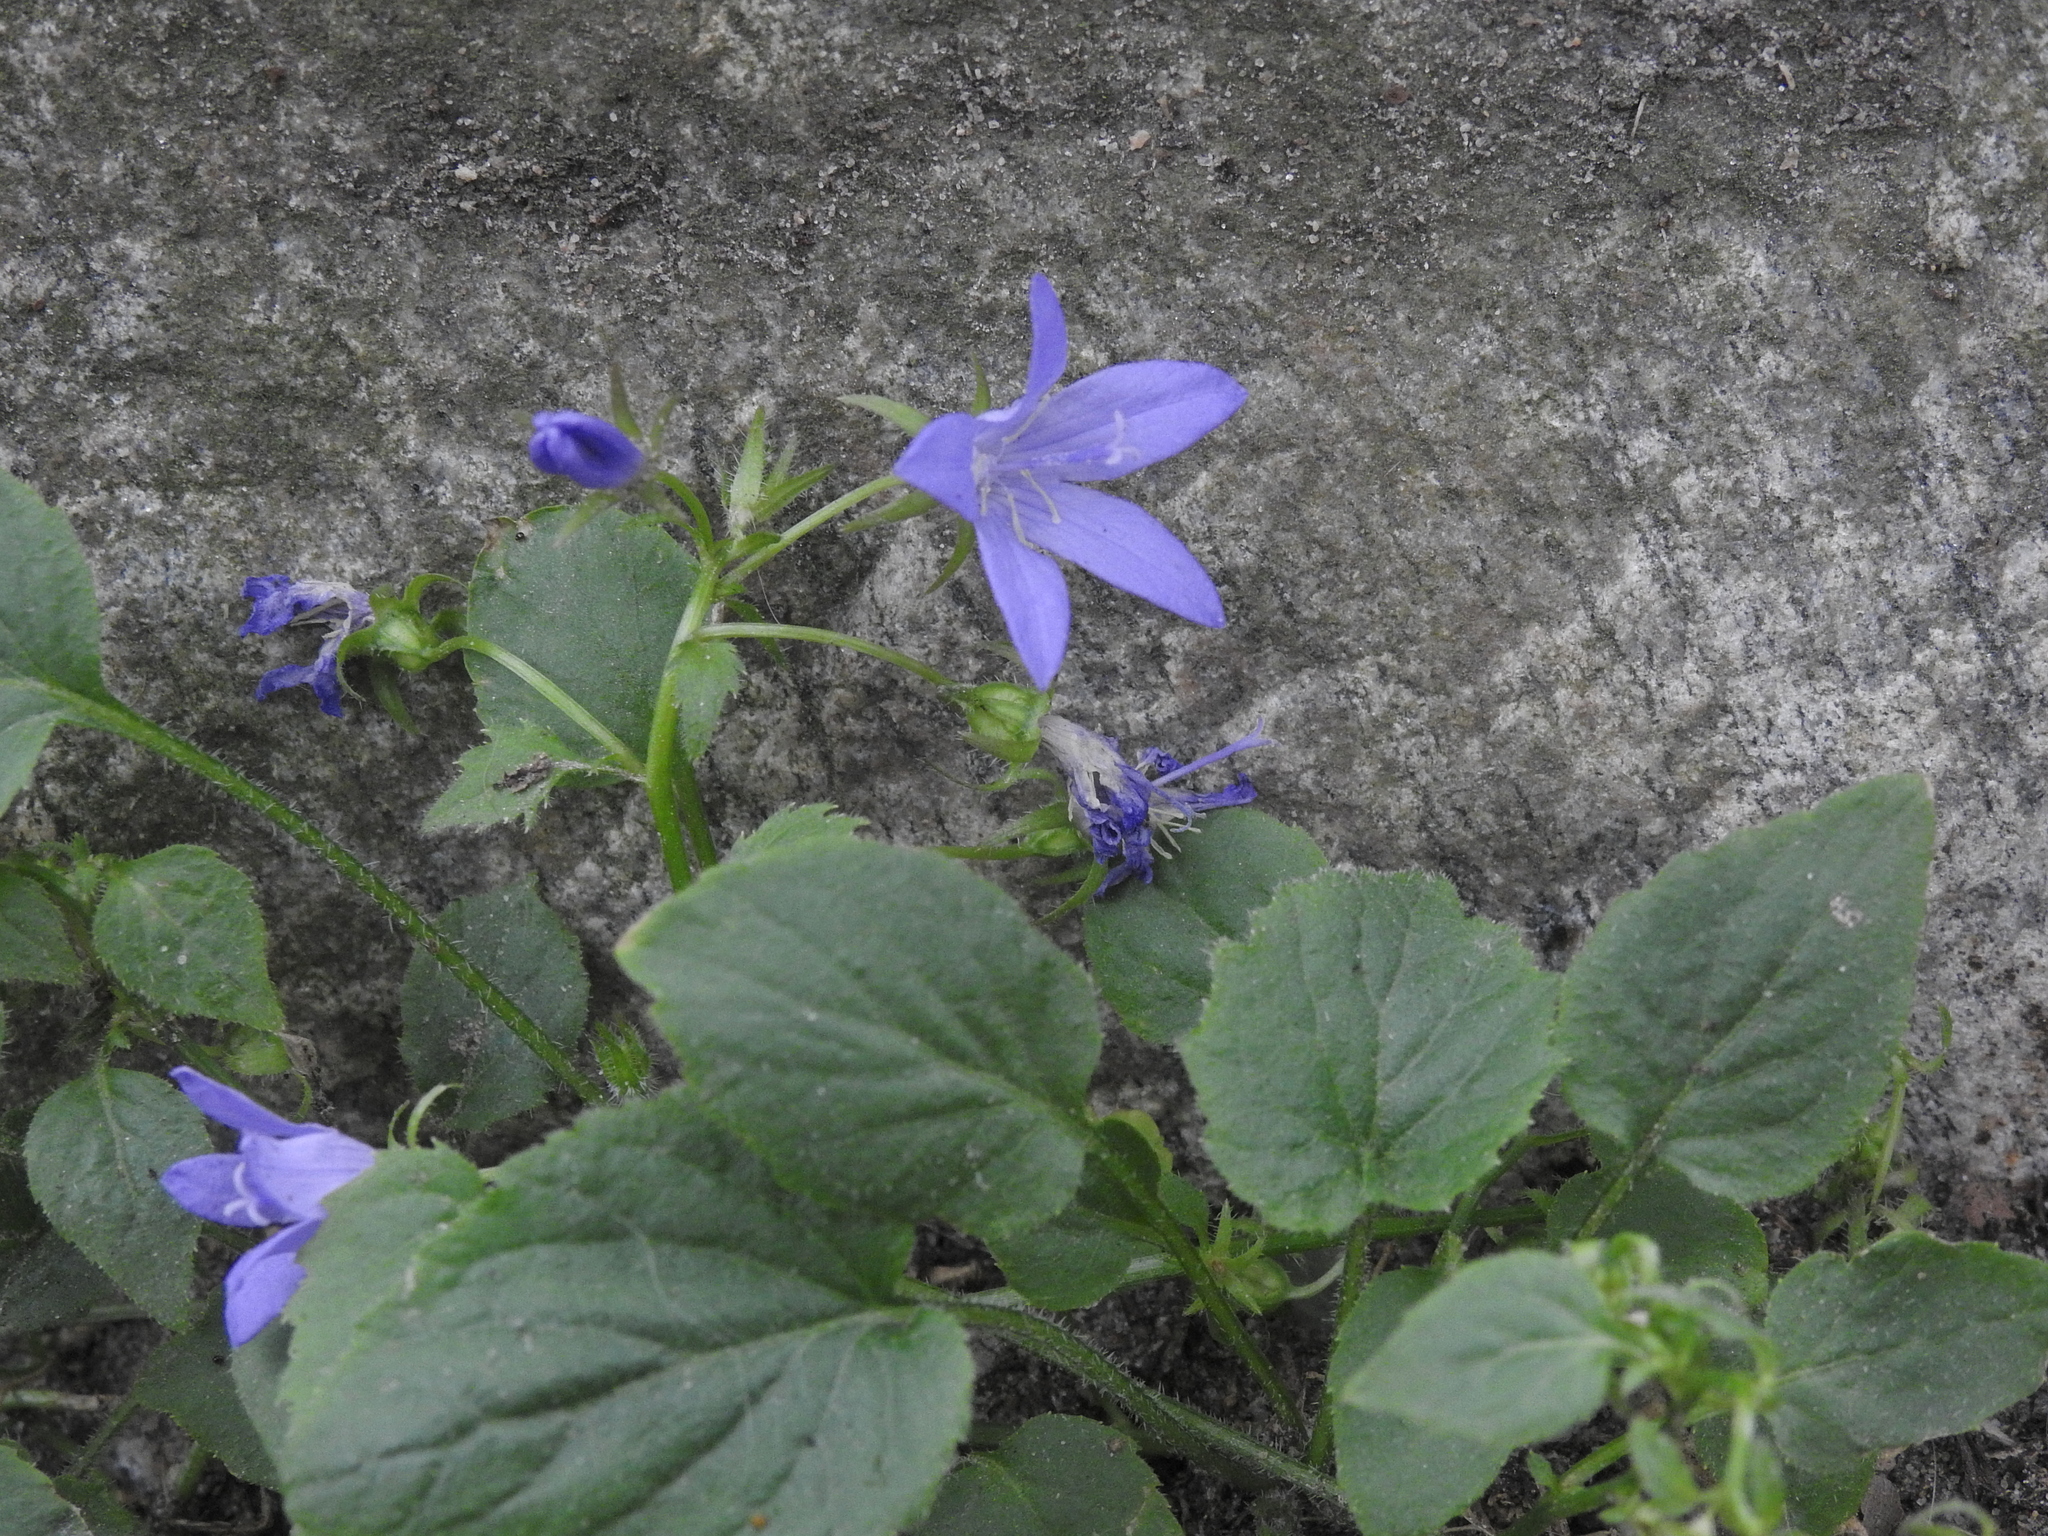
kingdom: Plantae
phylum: Tracheophyta
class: Magnoliopsida
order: Asterales
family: Campanulaceae
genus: Campanula
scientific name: Campanula poscharskyana
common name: Trailing bellflower
